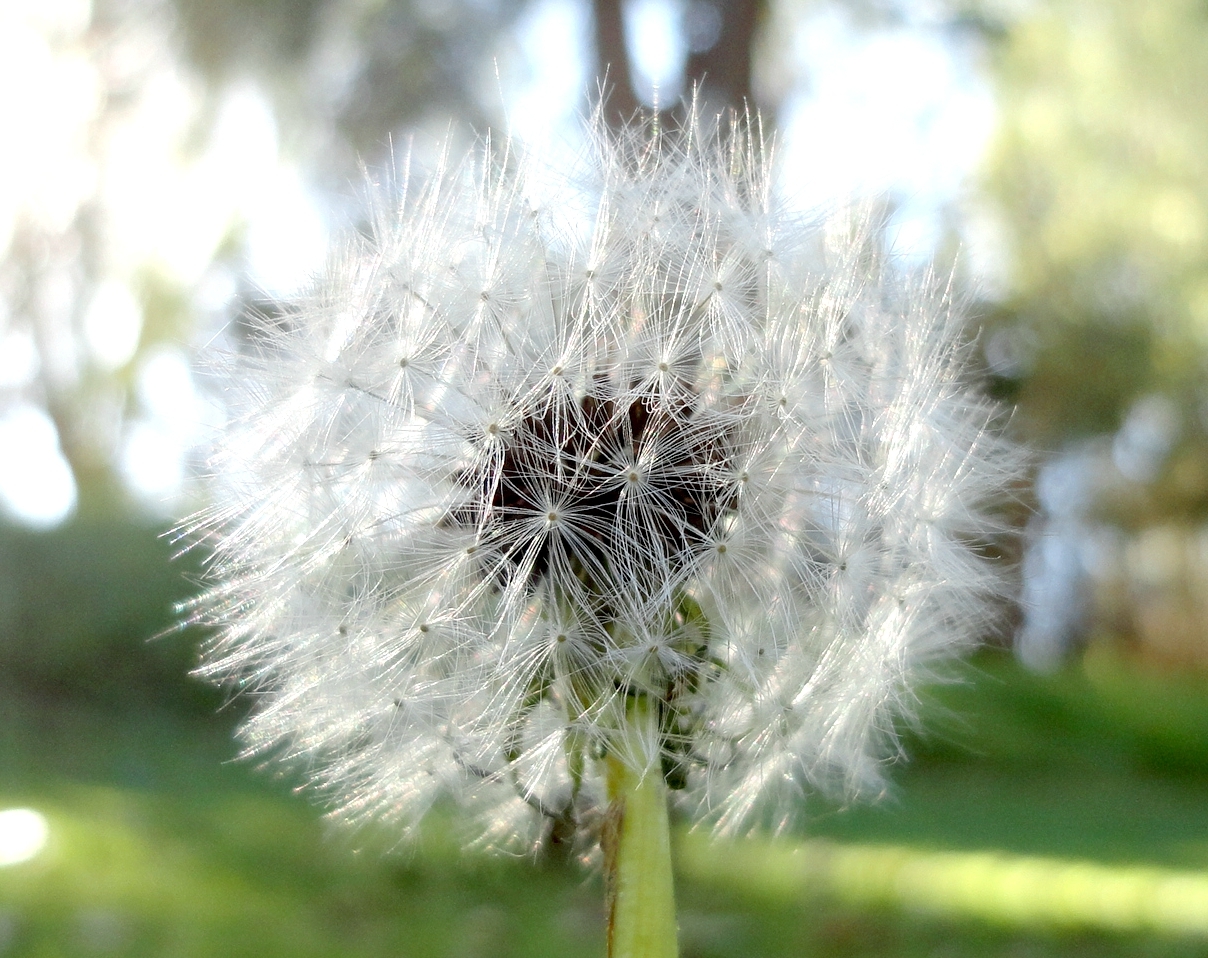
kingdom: Plantae
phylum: Tracheophyta
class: Magnoliopsida
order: Asterales
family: Asteraceae
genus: Taraxacum
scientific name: Taraxacum officinale
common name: Common dandelion
